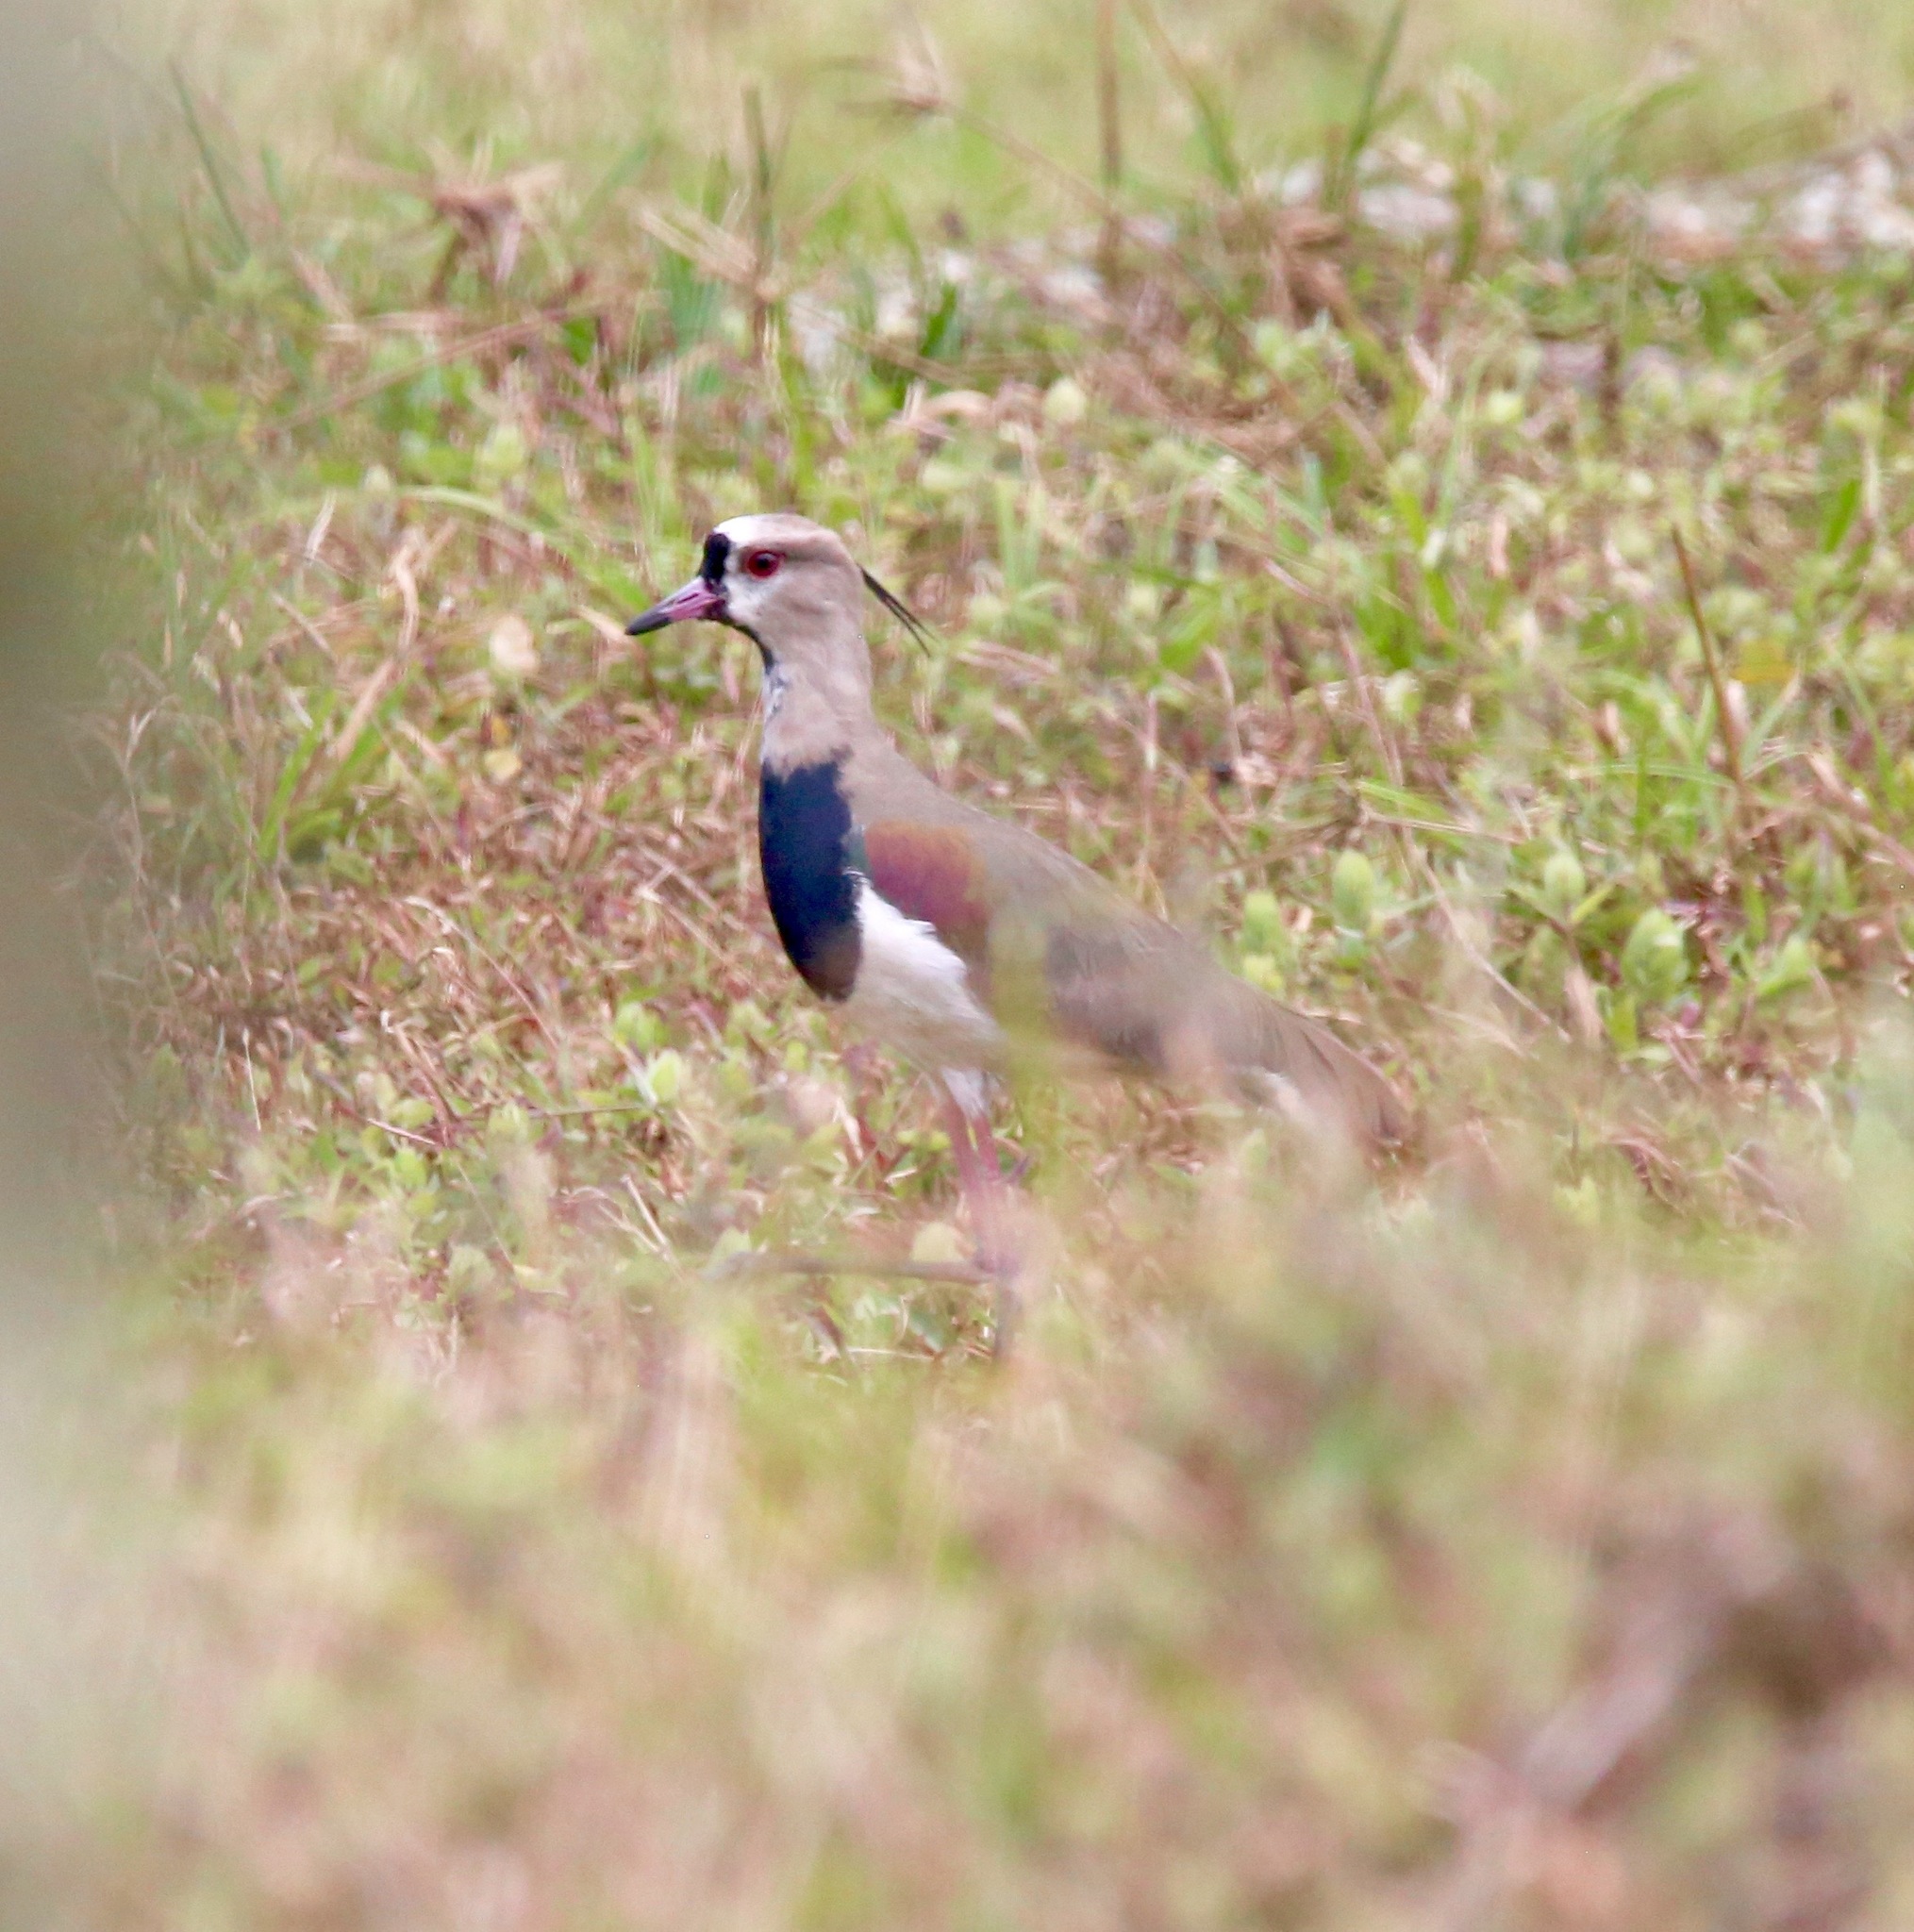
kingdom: Animalia
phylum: Chordata
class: Aves
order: Charadriiformes
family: Charadriidae
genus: Vanellus
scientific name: Vanellus chilensis
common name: Southern lapwing
